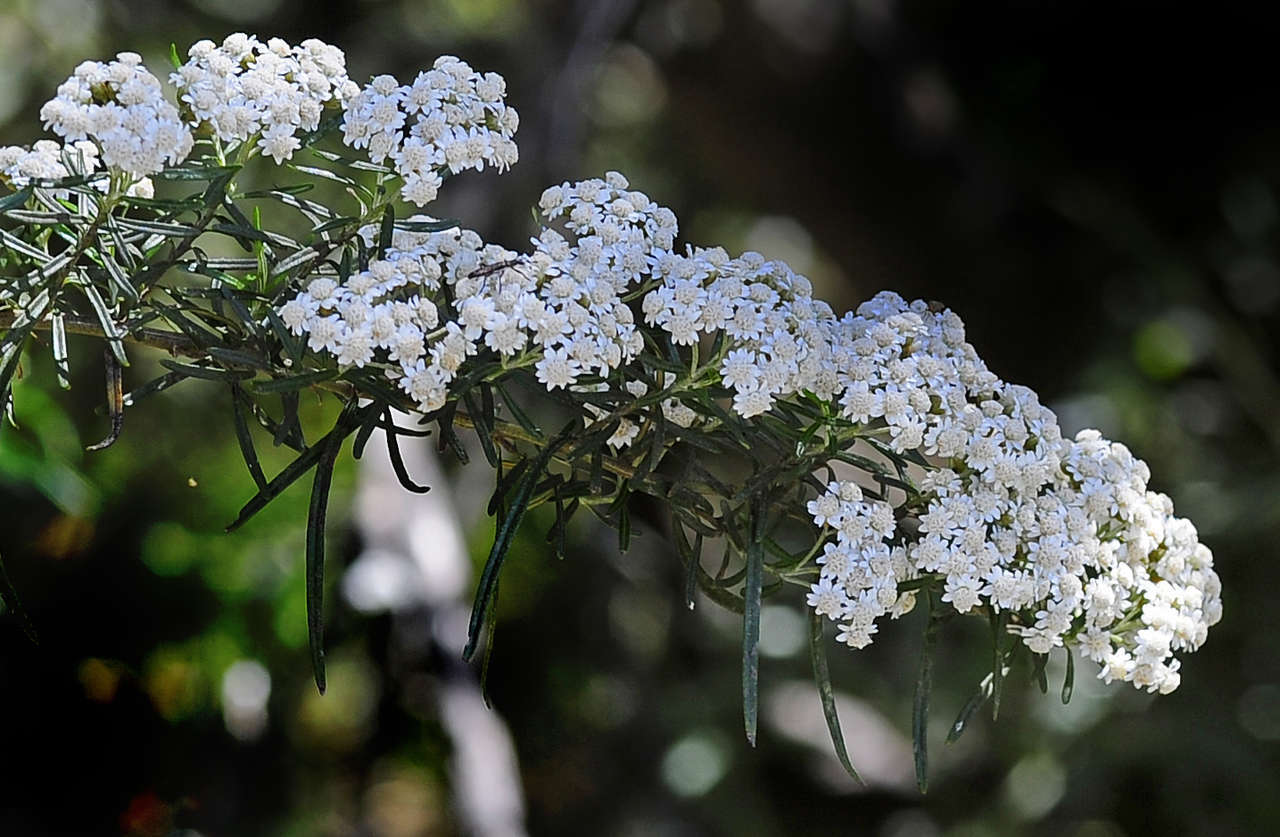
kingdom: Plantae
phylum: Tracheophyta
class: Magnoliopsida
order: Asterales
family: Asteraceae
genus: Ozothamnus
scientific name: Ozothamnus secundiflorus
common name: Cascade everlasting
